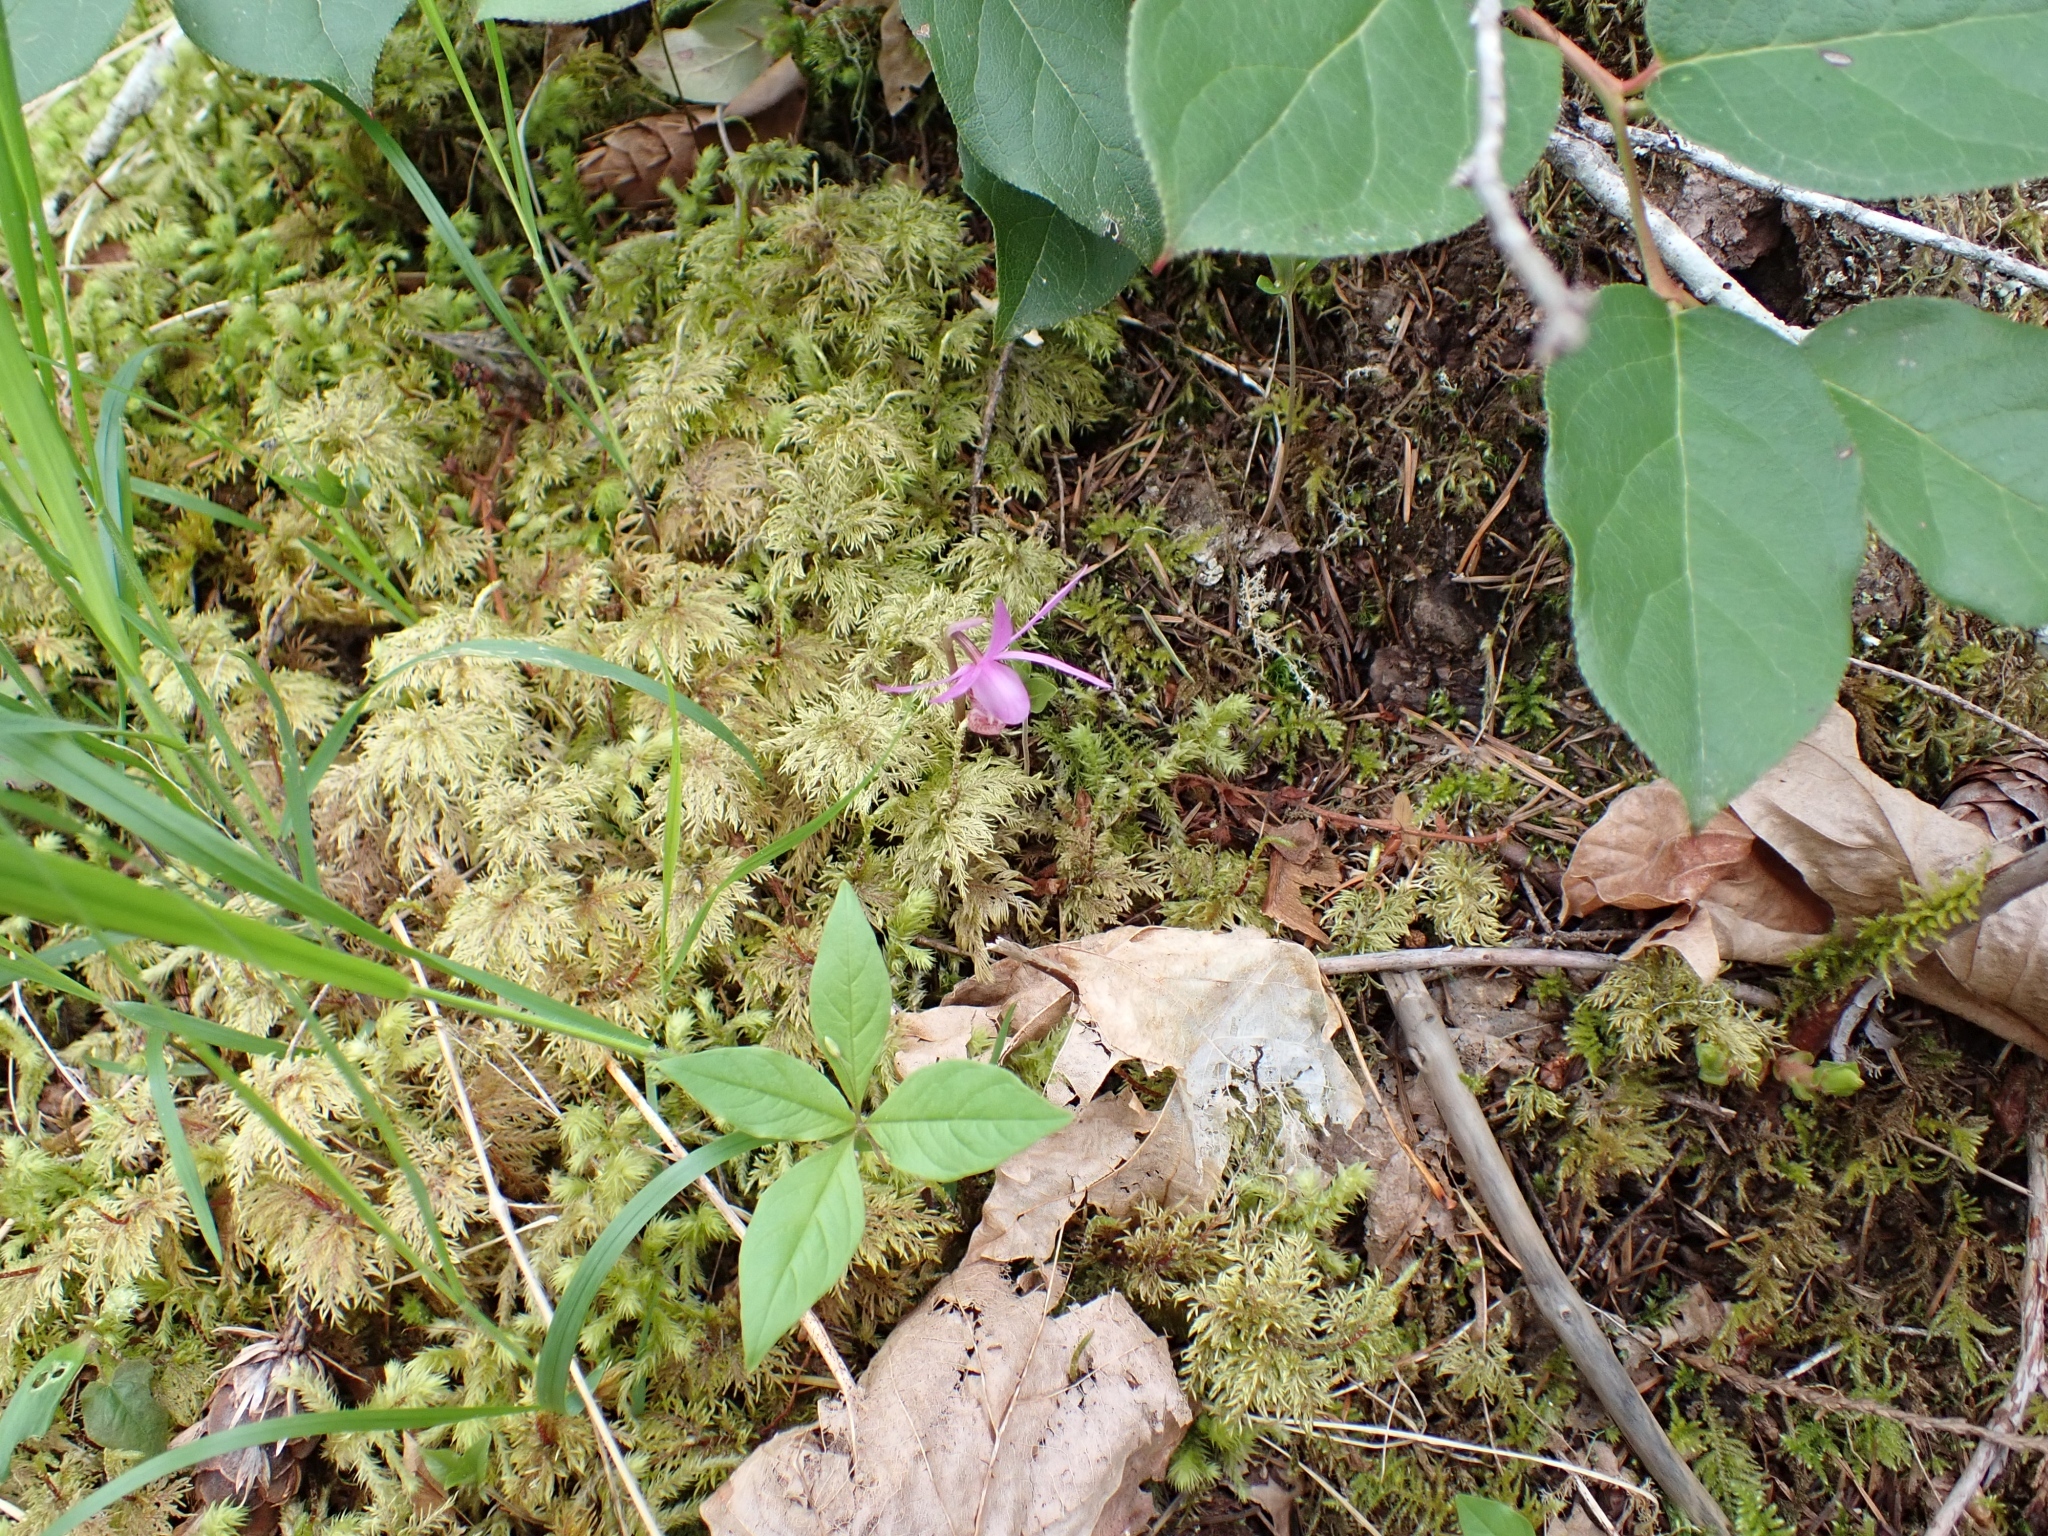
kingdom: Plantae
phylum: Tracheophyta
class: Liliopsida
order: Asparagales
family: Orchidaceae
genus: Calypso
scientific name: Calypso bulbosa
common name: Calypso
